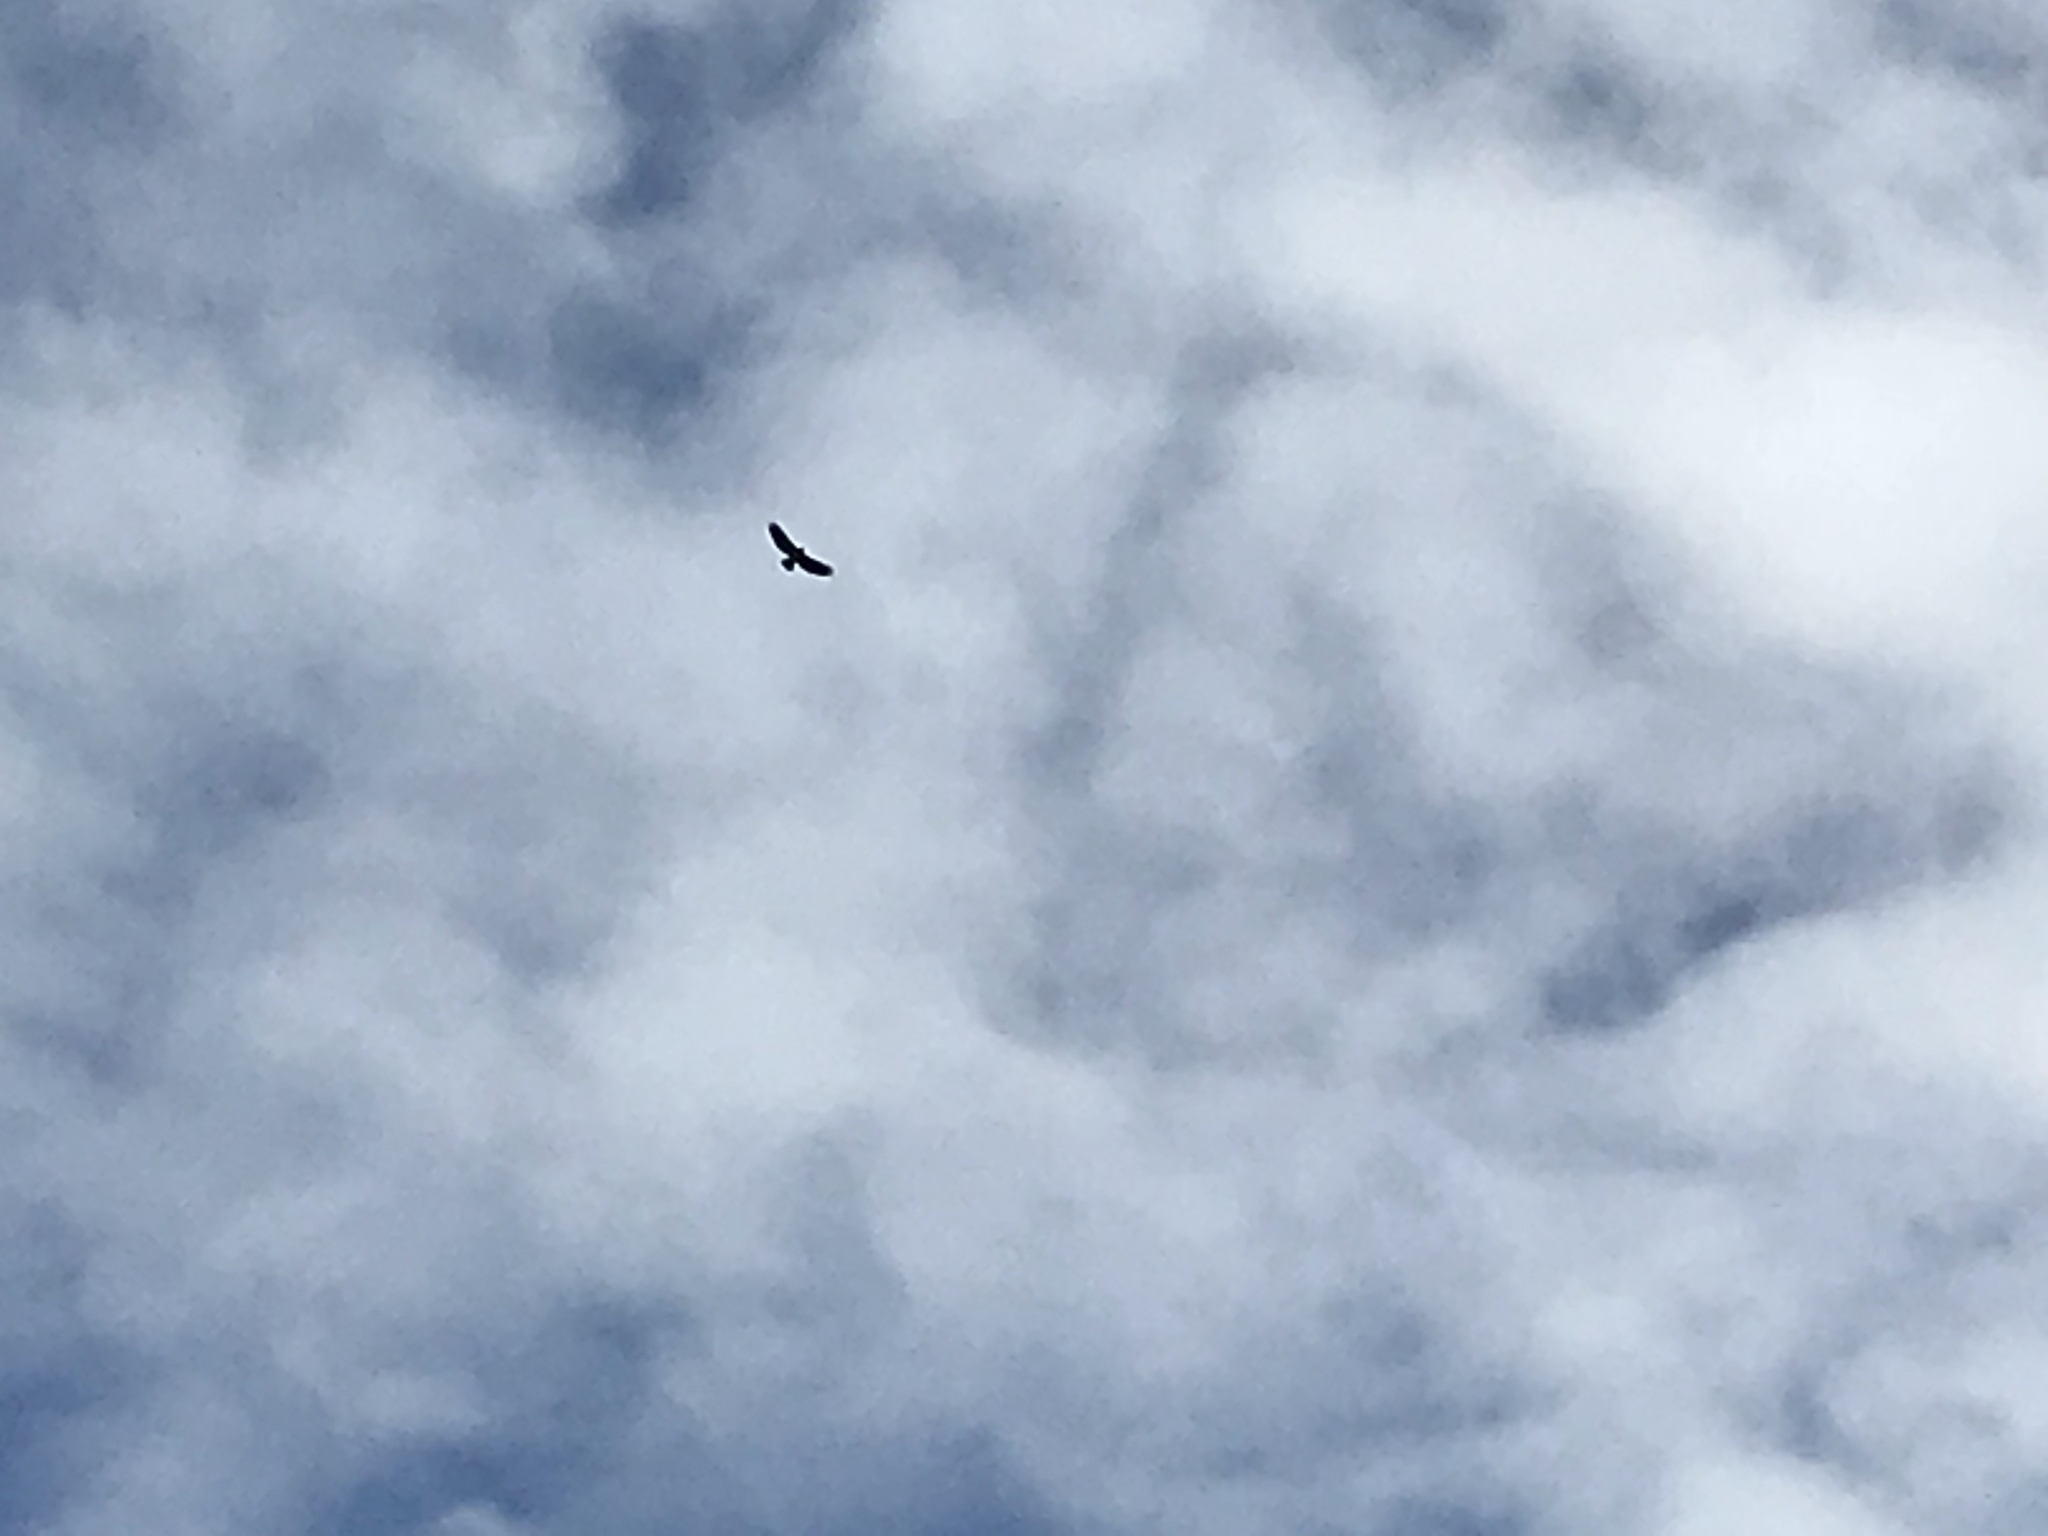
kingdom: Animalia
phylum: Chordata
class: Aves
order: Accipitriformes
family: Accipitridae
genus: Buteo
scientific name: Buteo jamaicensis
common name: Red-tailed hawk
